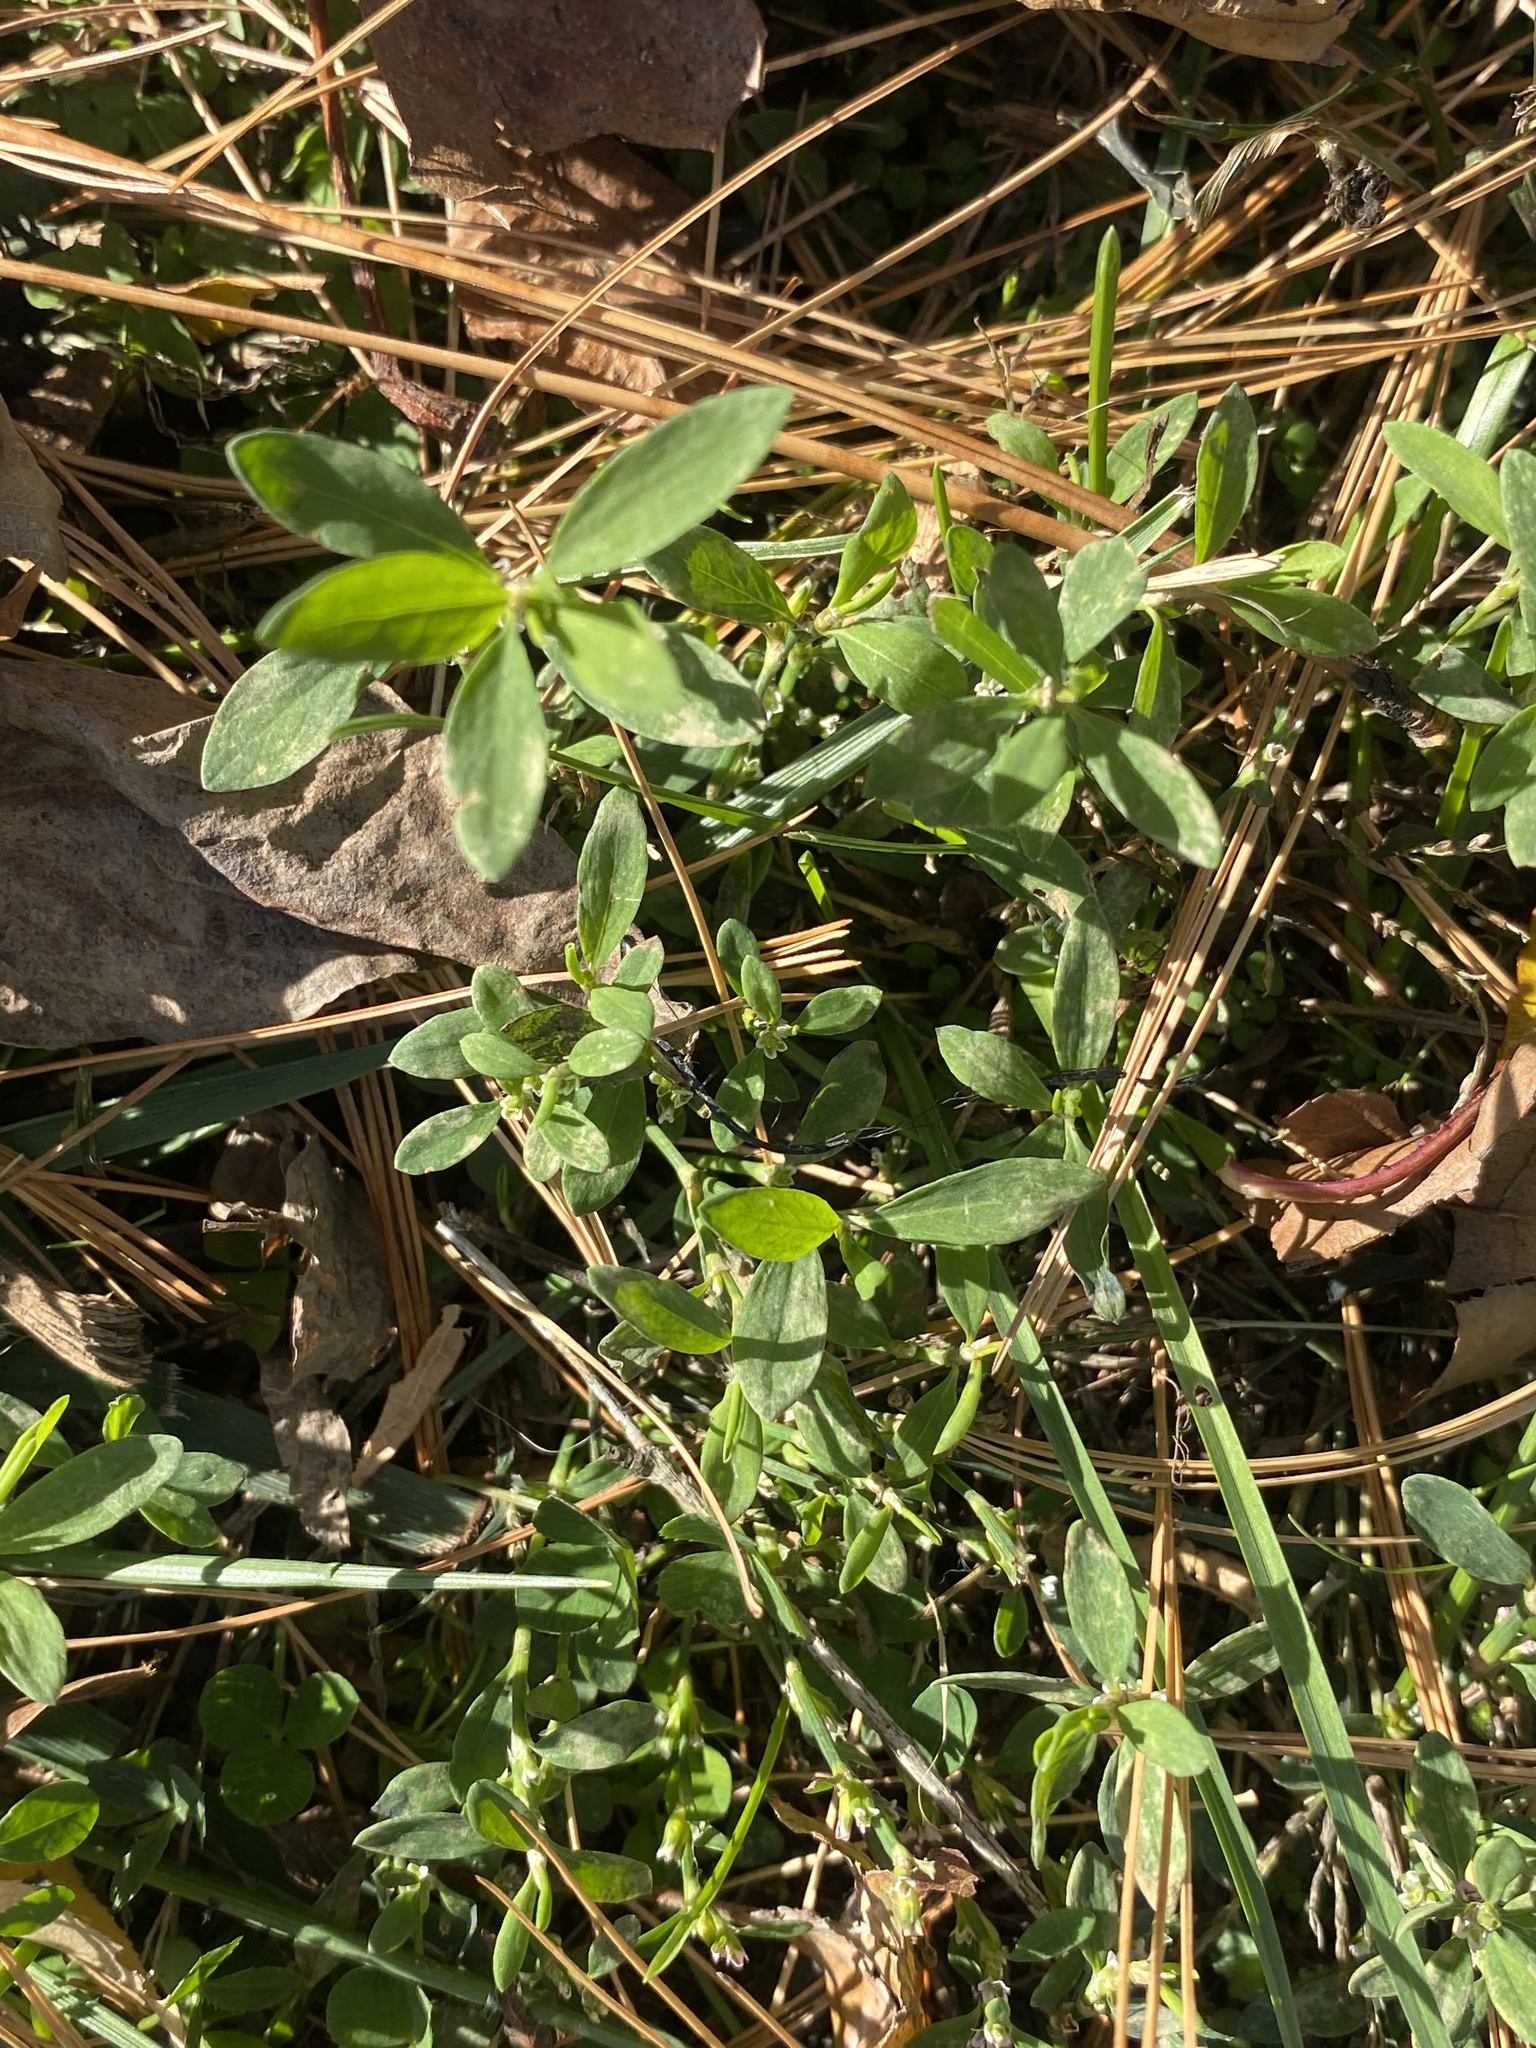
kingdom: Plantae
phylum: Tracheophyta
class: Magnoliopsida
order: Caryophyllales
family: Polygonaceae
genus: Polygonum
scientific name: Polygonum aviculare
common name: Prostrate knotweed
